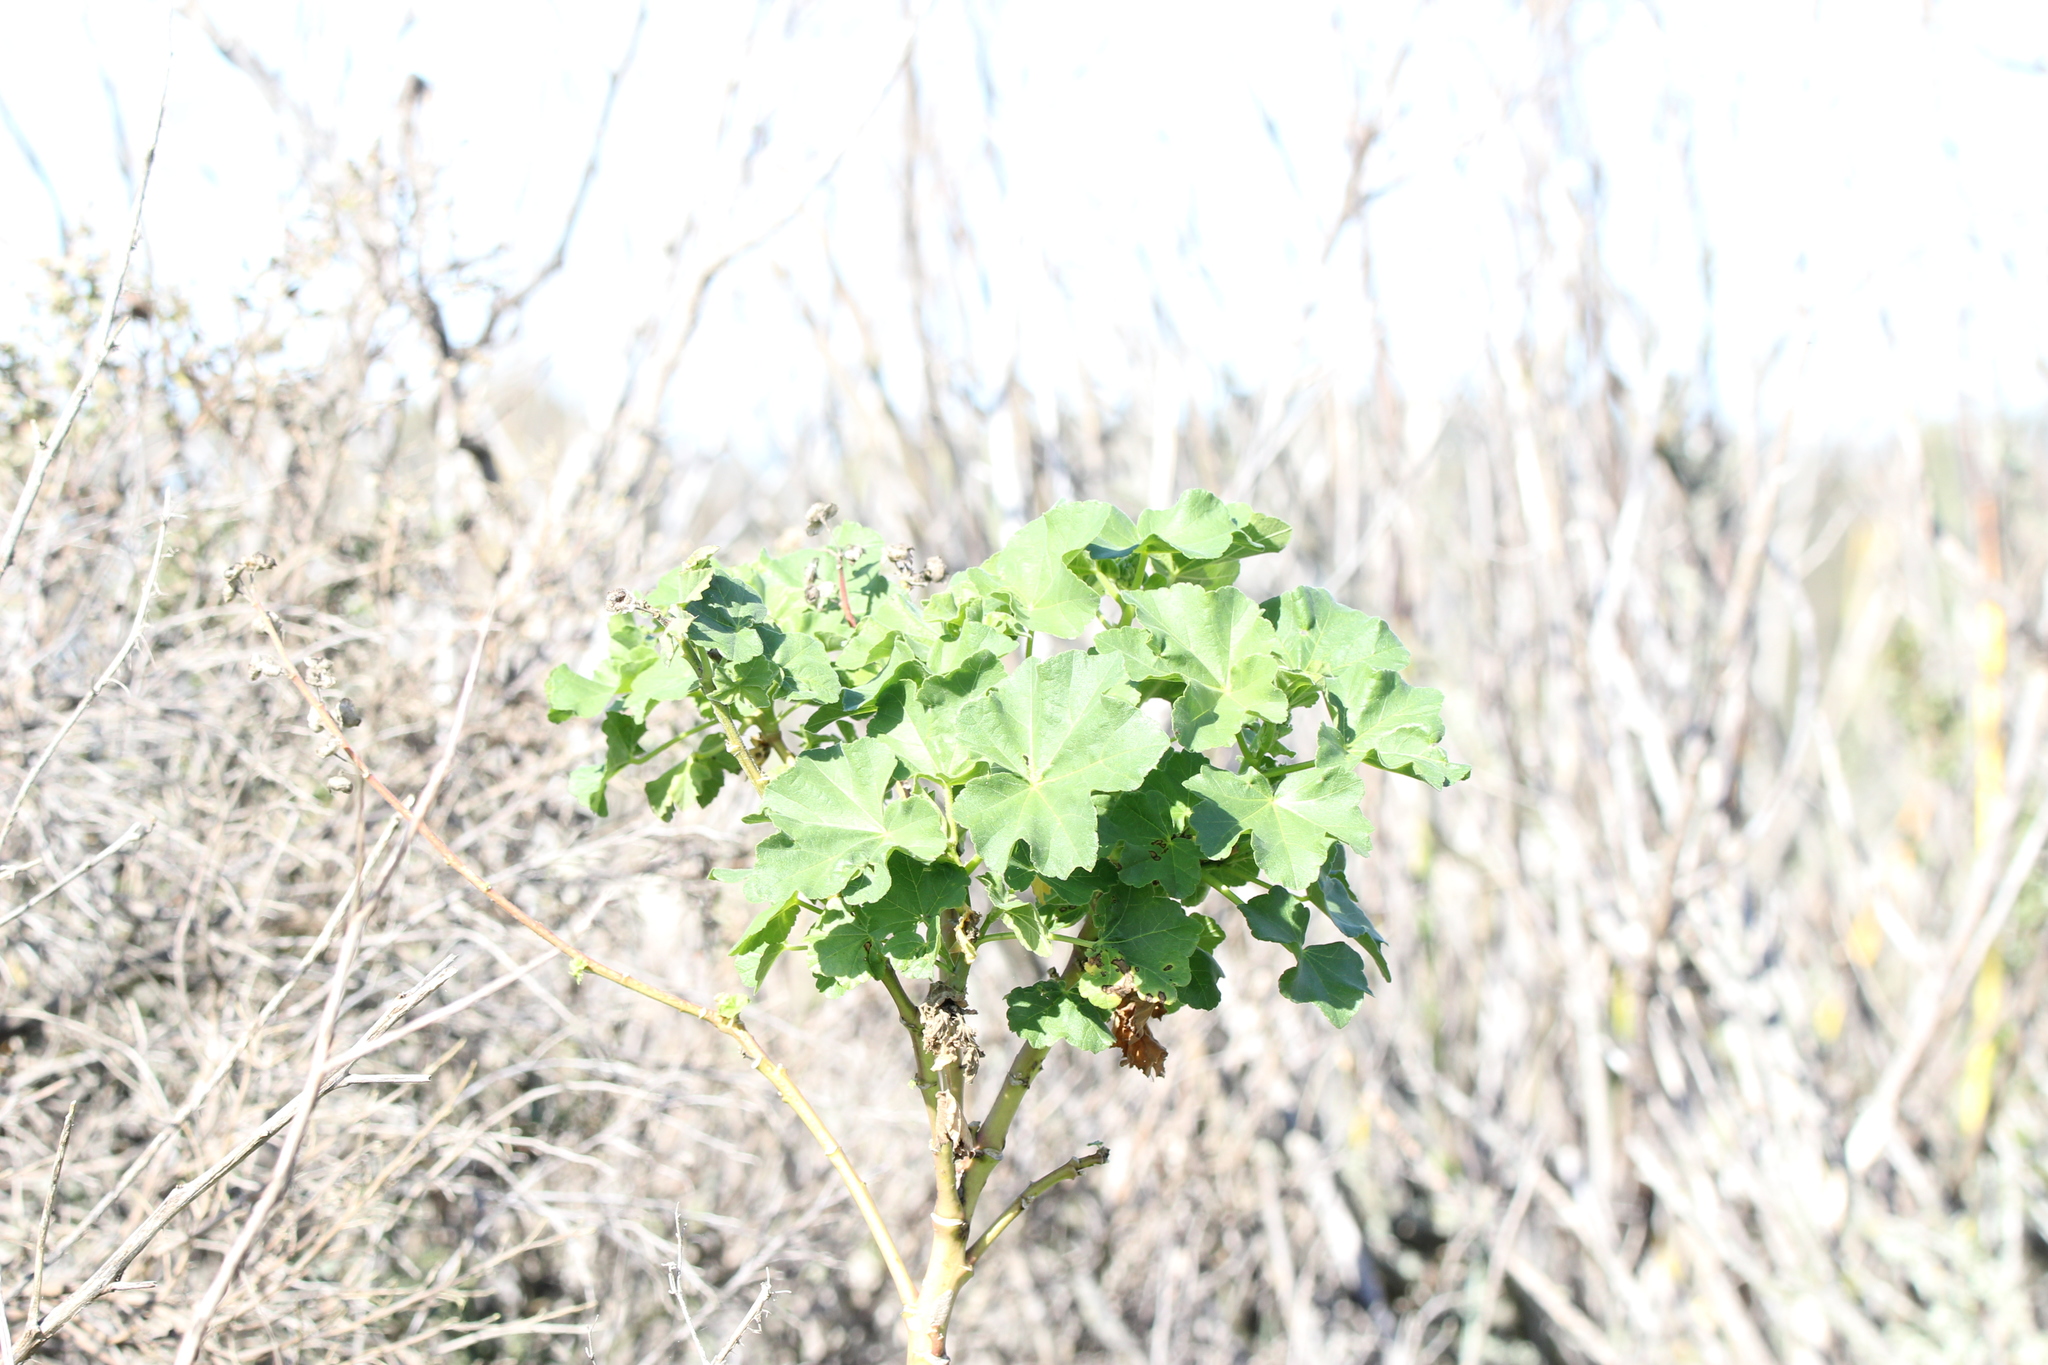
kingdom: Plantae
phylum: Tracheophyta
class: Magnoliopsida
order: Malvales
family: Malvaceae
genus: Malva
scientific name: Malva
